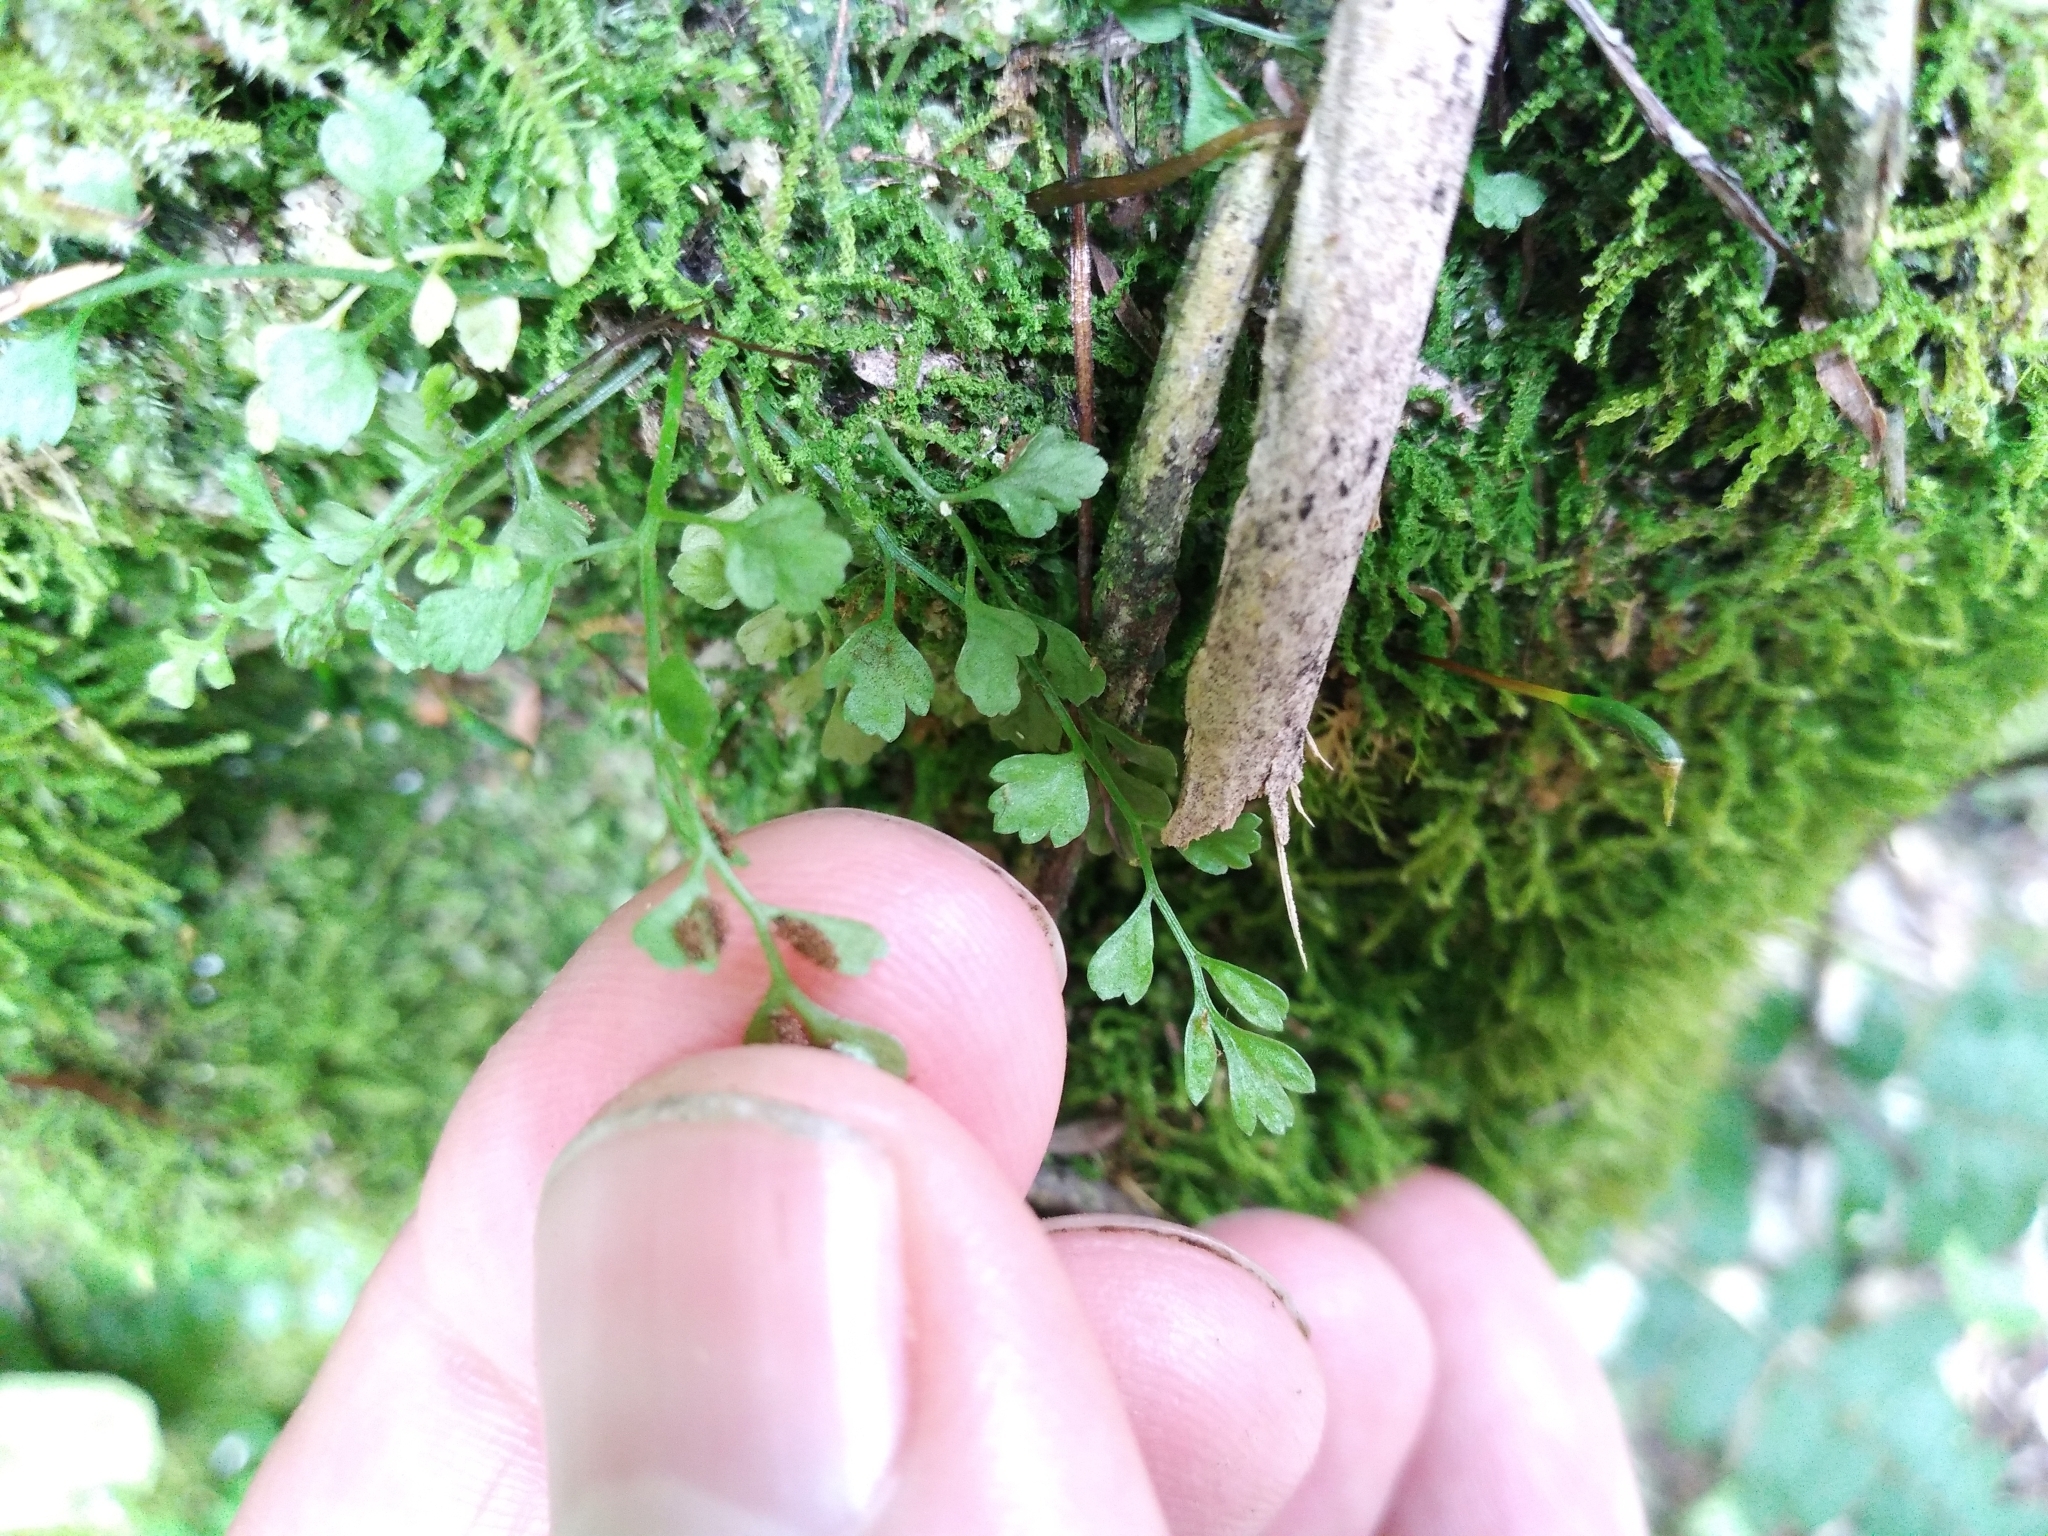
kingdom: Plantae
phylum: Tracheophyta
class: Polypodiopsida
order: Polypodiales
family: Aspleniaceae
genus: Asplenium
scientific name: Asplenium hookerianum
